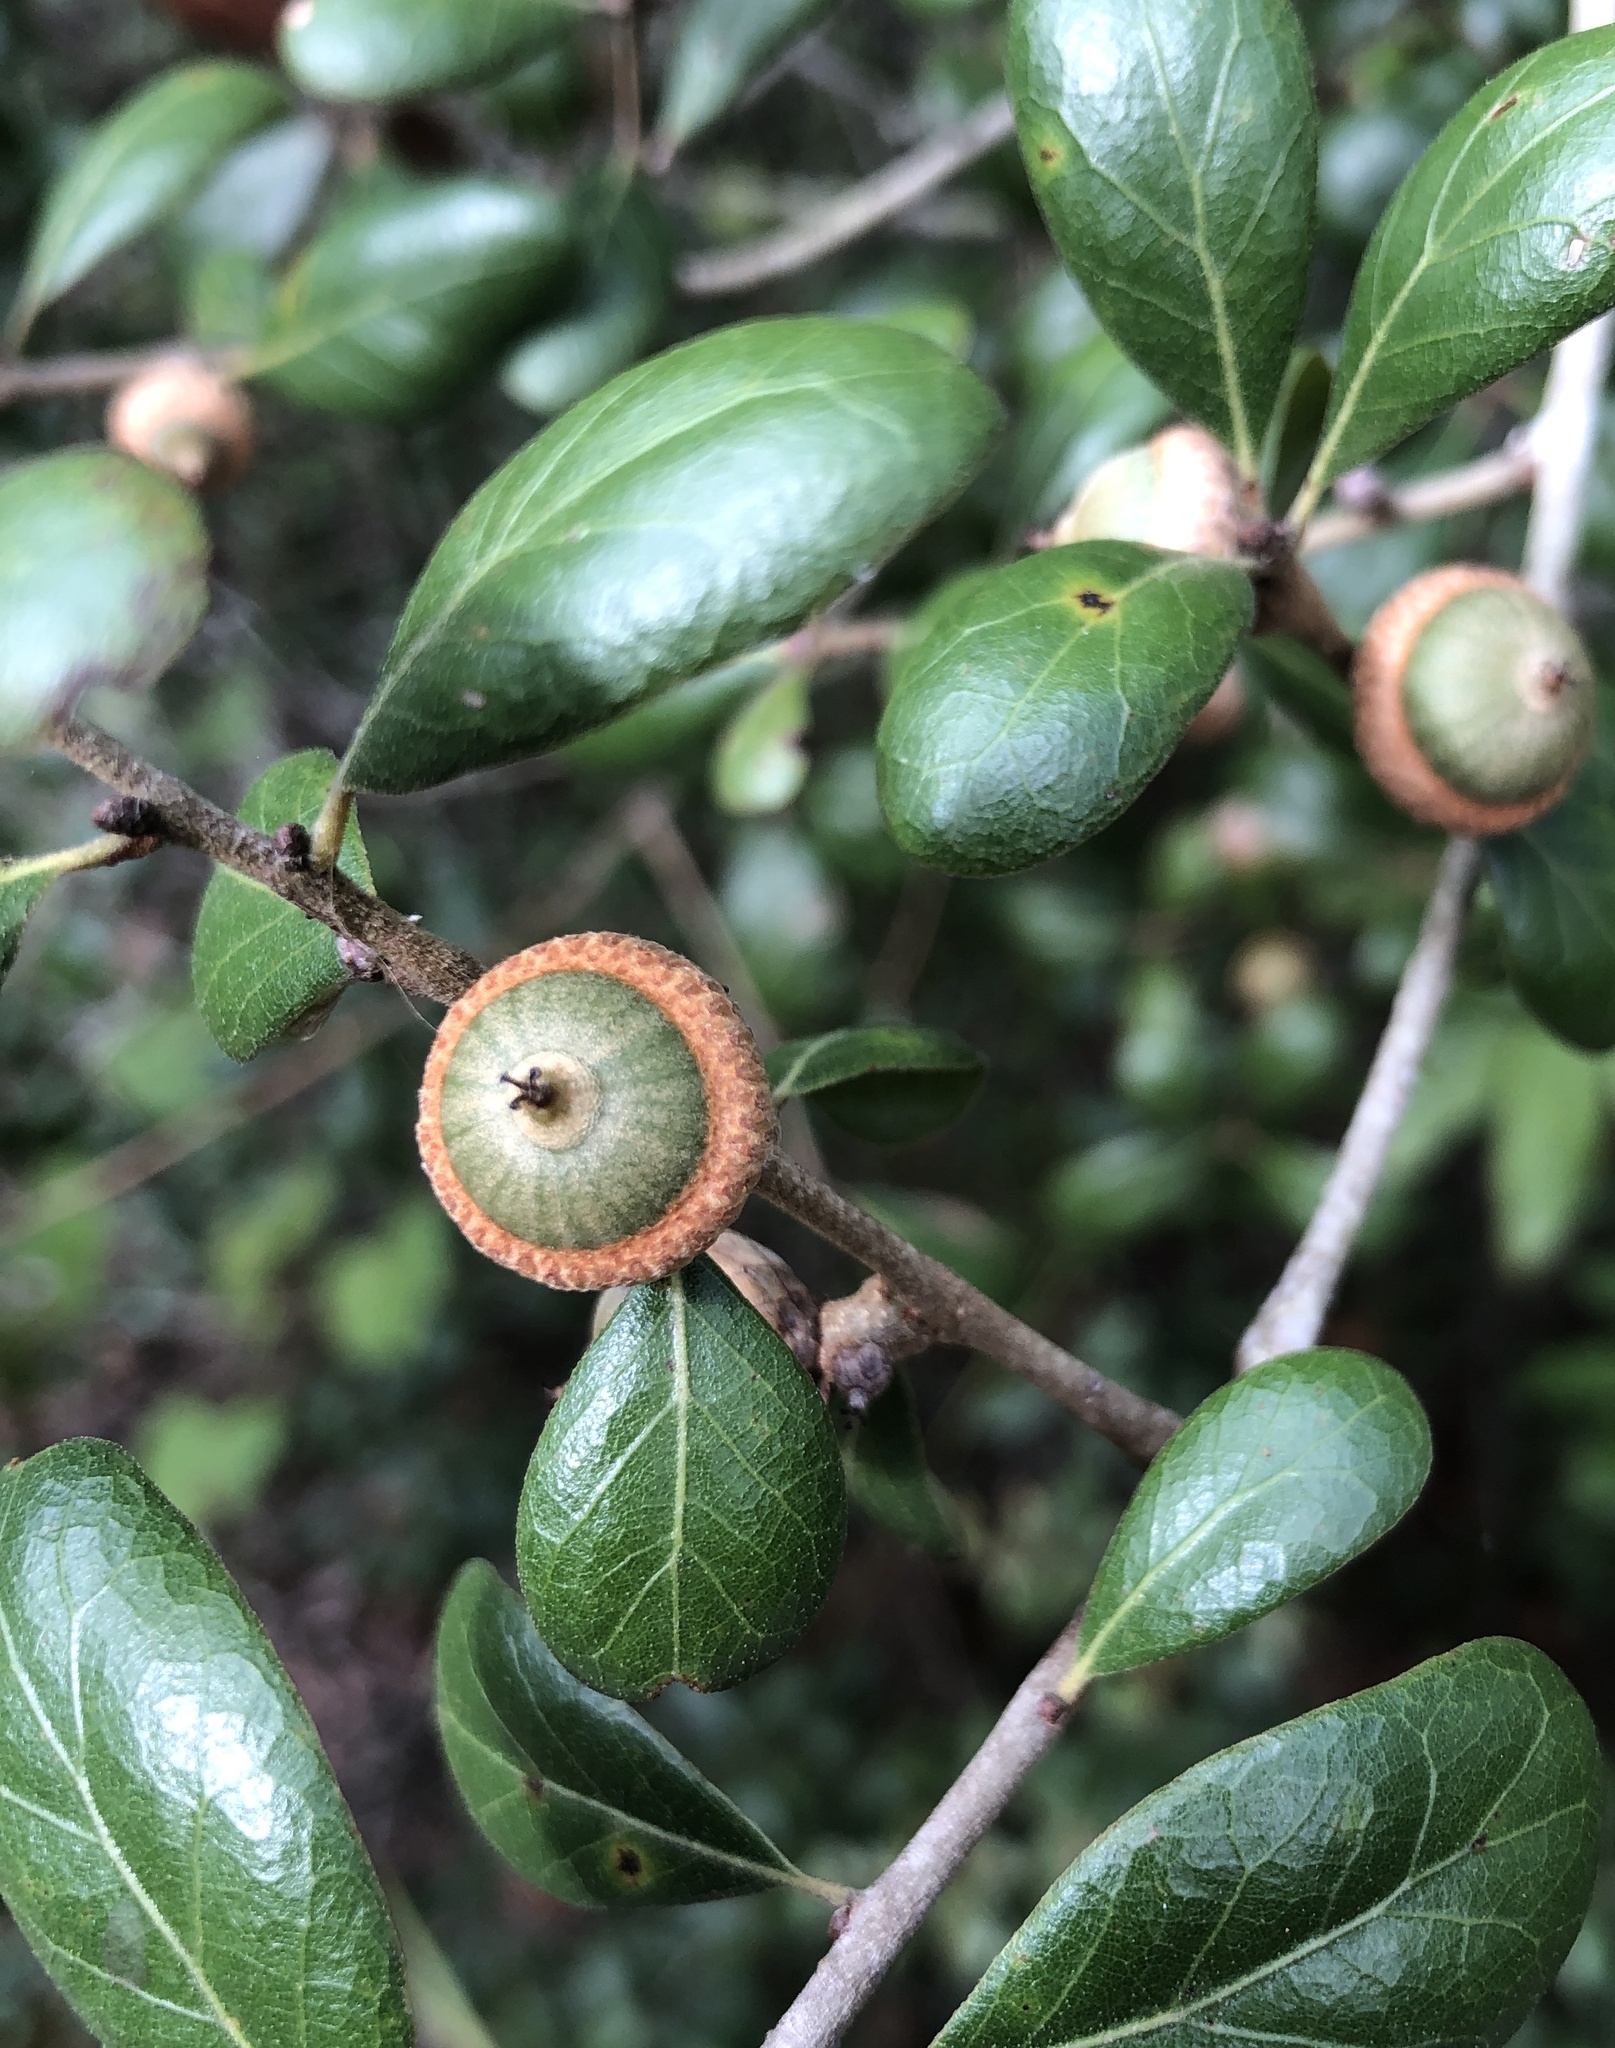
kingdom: Plantae
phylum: Tracheophyta
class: Magnoliopsida
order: Fagales
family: Fagaceae
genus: Quercus
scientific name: Quercus myrtifolia
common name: Myrtle oak
